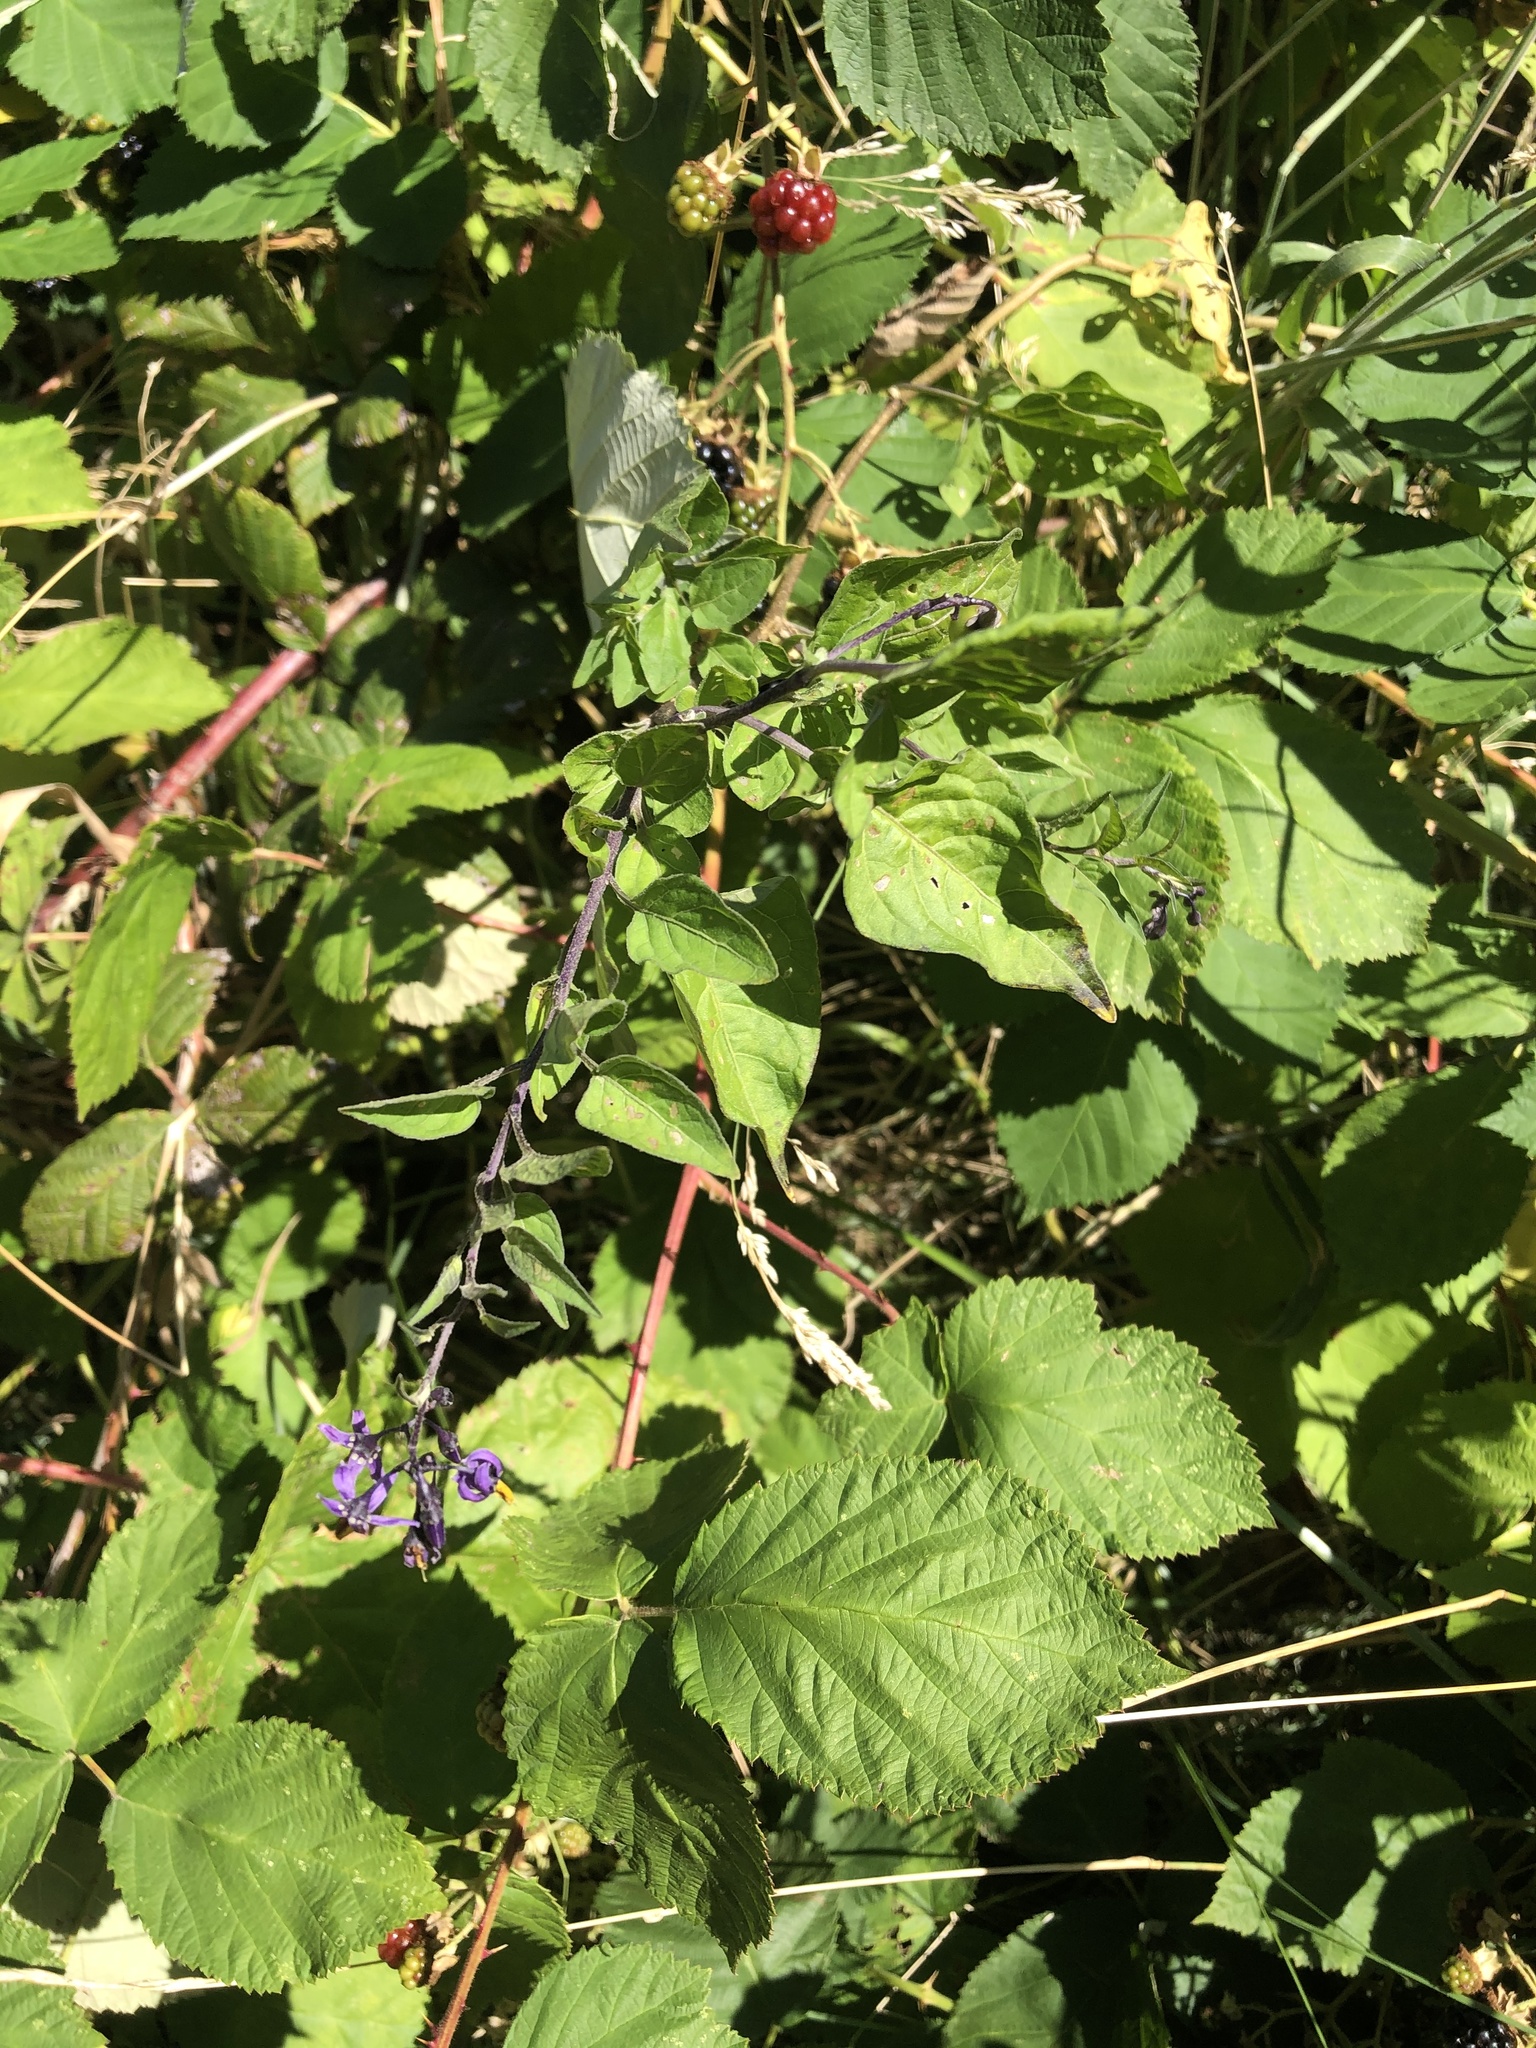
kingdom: Plantae
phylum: Tracheophyta
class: Magnoliopsida
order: Solanales
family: Solanaceae
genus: Solanum
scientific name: Solanum dulcamara
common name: Climbing nightshade
